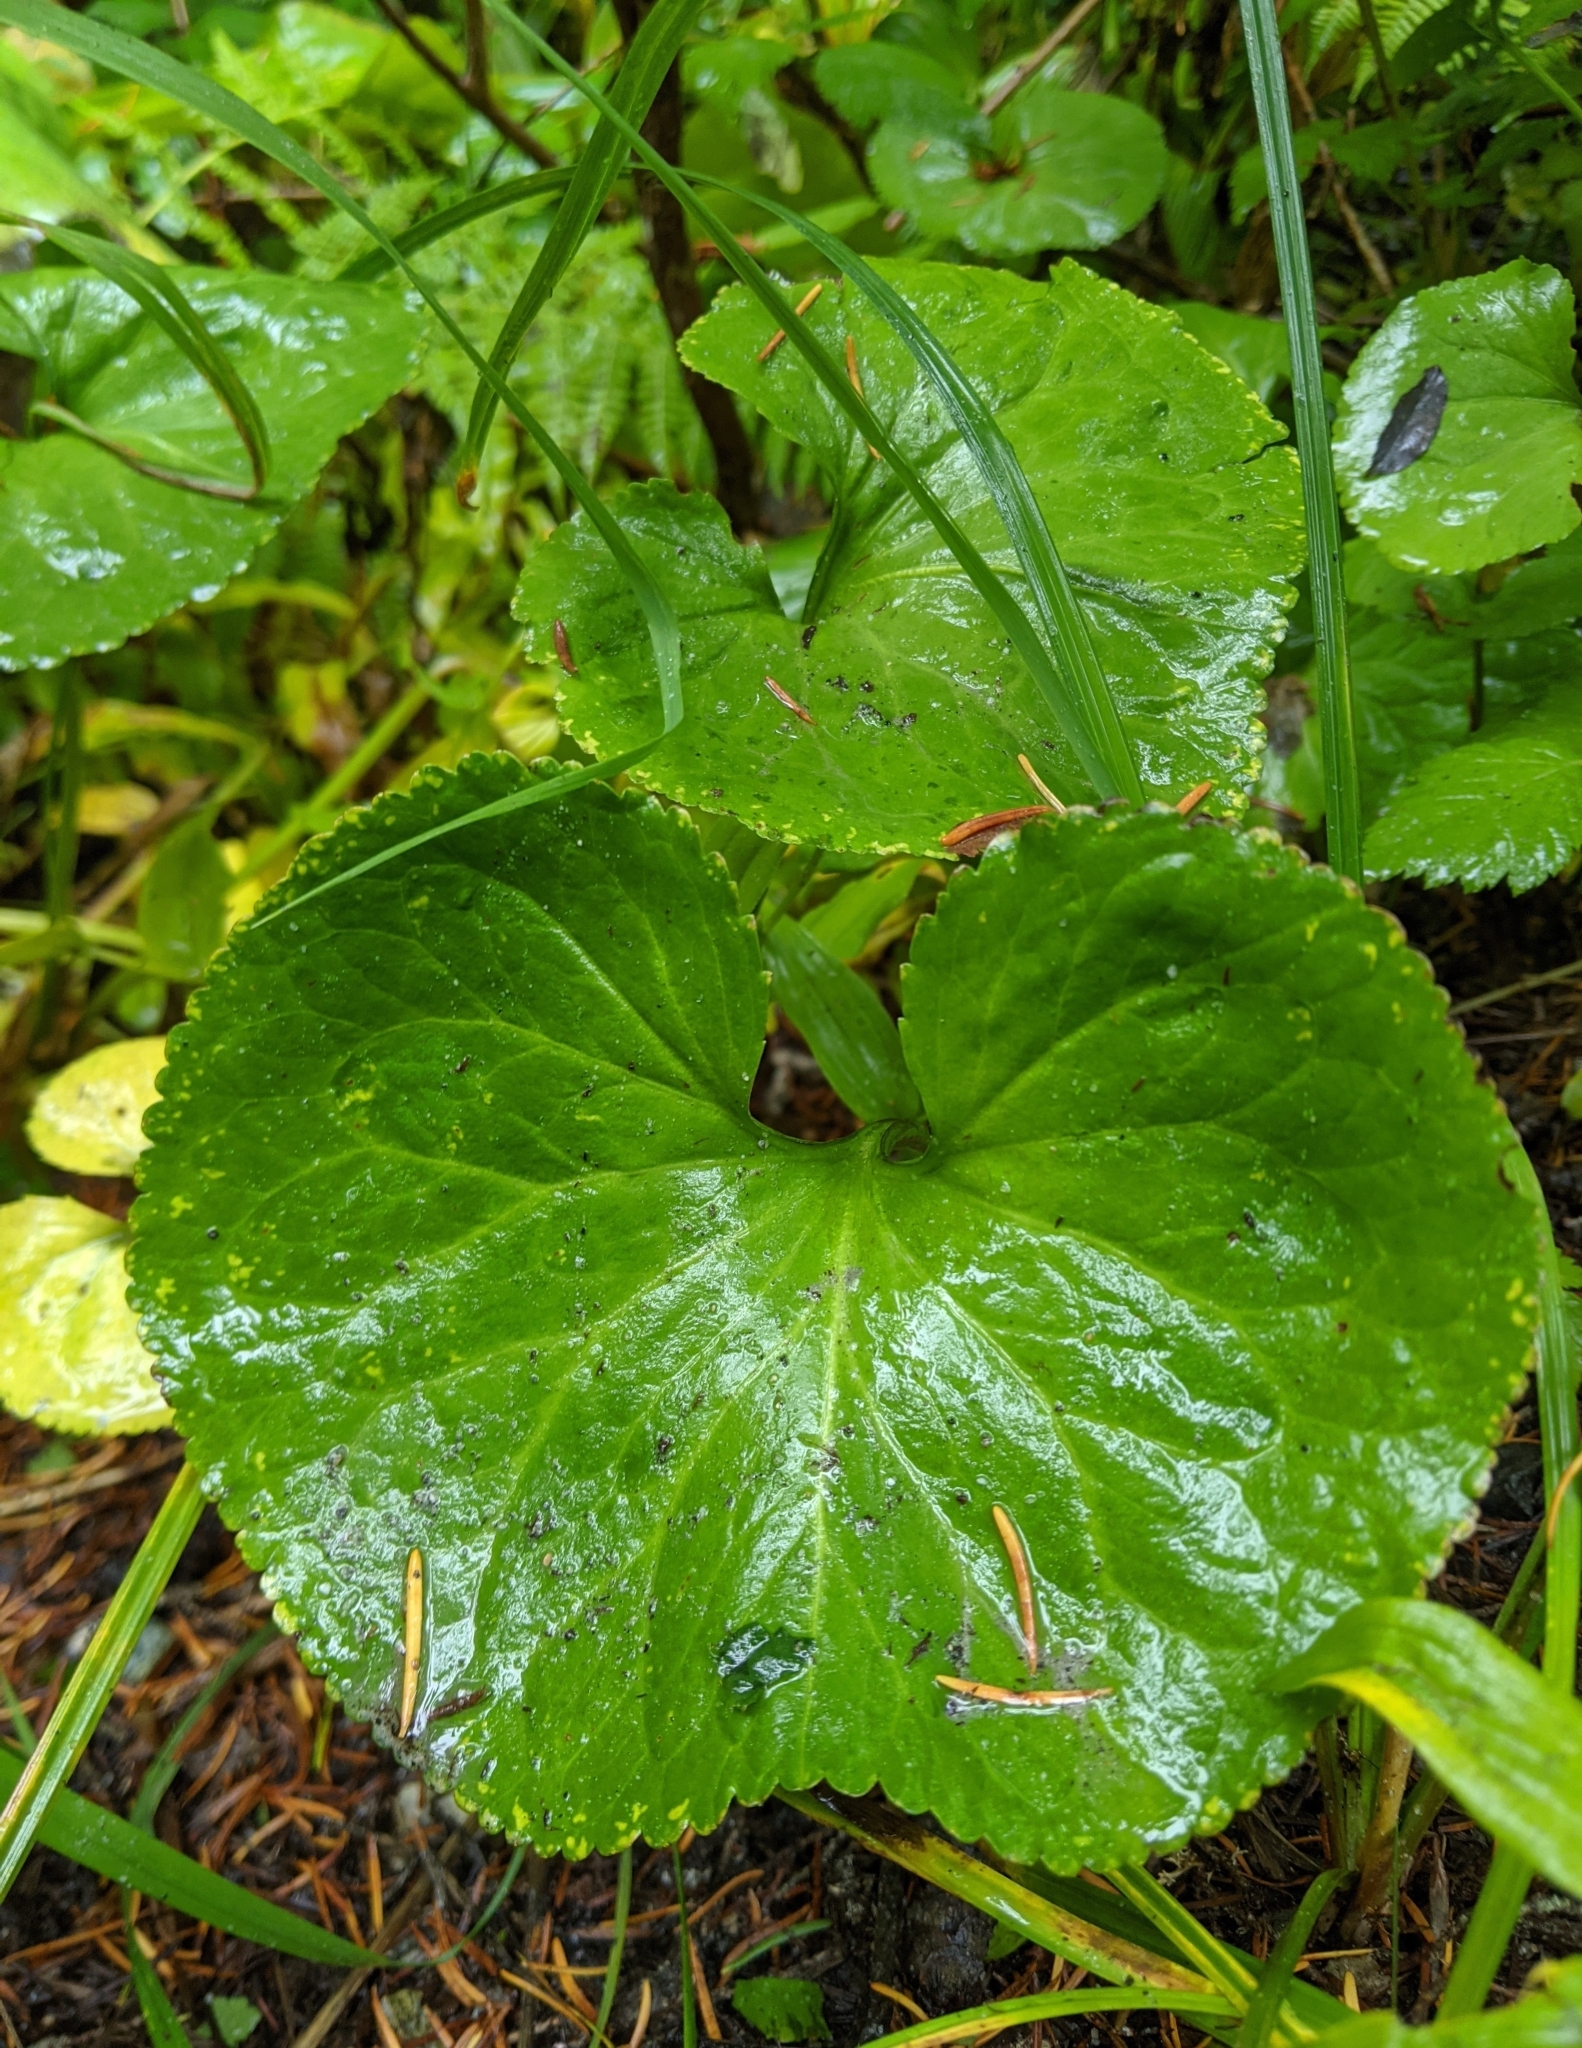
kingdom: Plantae
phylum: Tracheophyta
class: Magnoliopsida
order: Asterales
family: Menyanthaceae
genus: Nephrophyllidium
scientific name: Nephrophyllidium crista-galli
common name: Deer-cabbage
